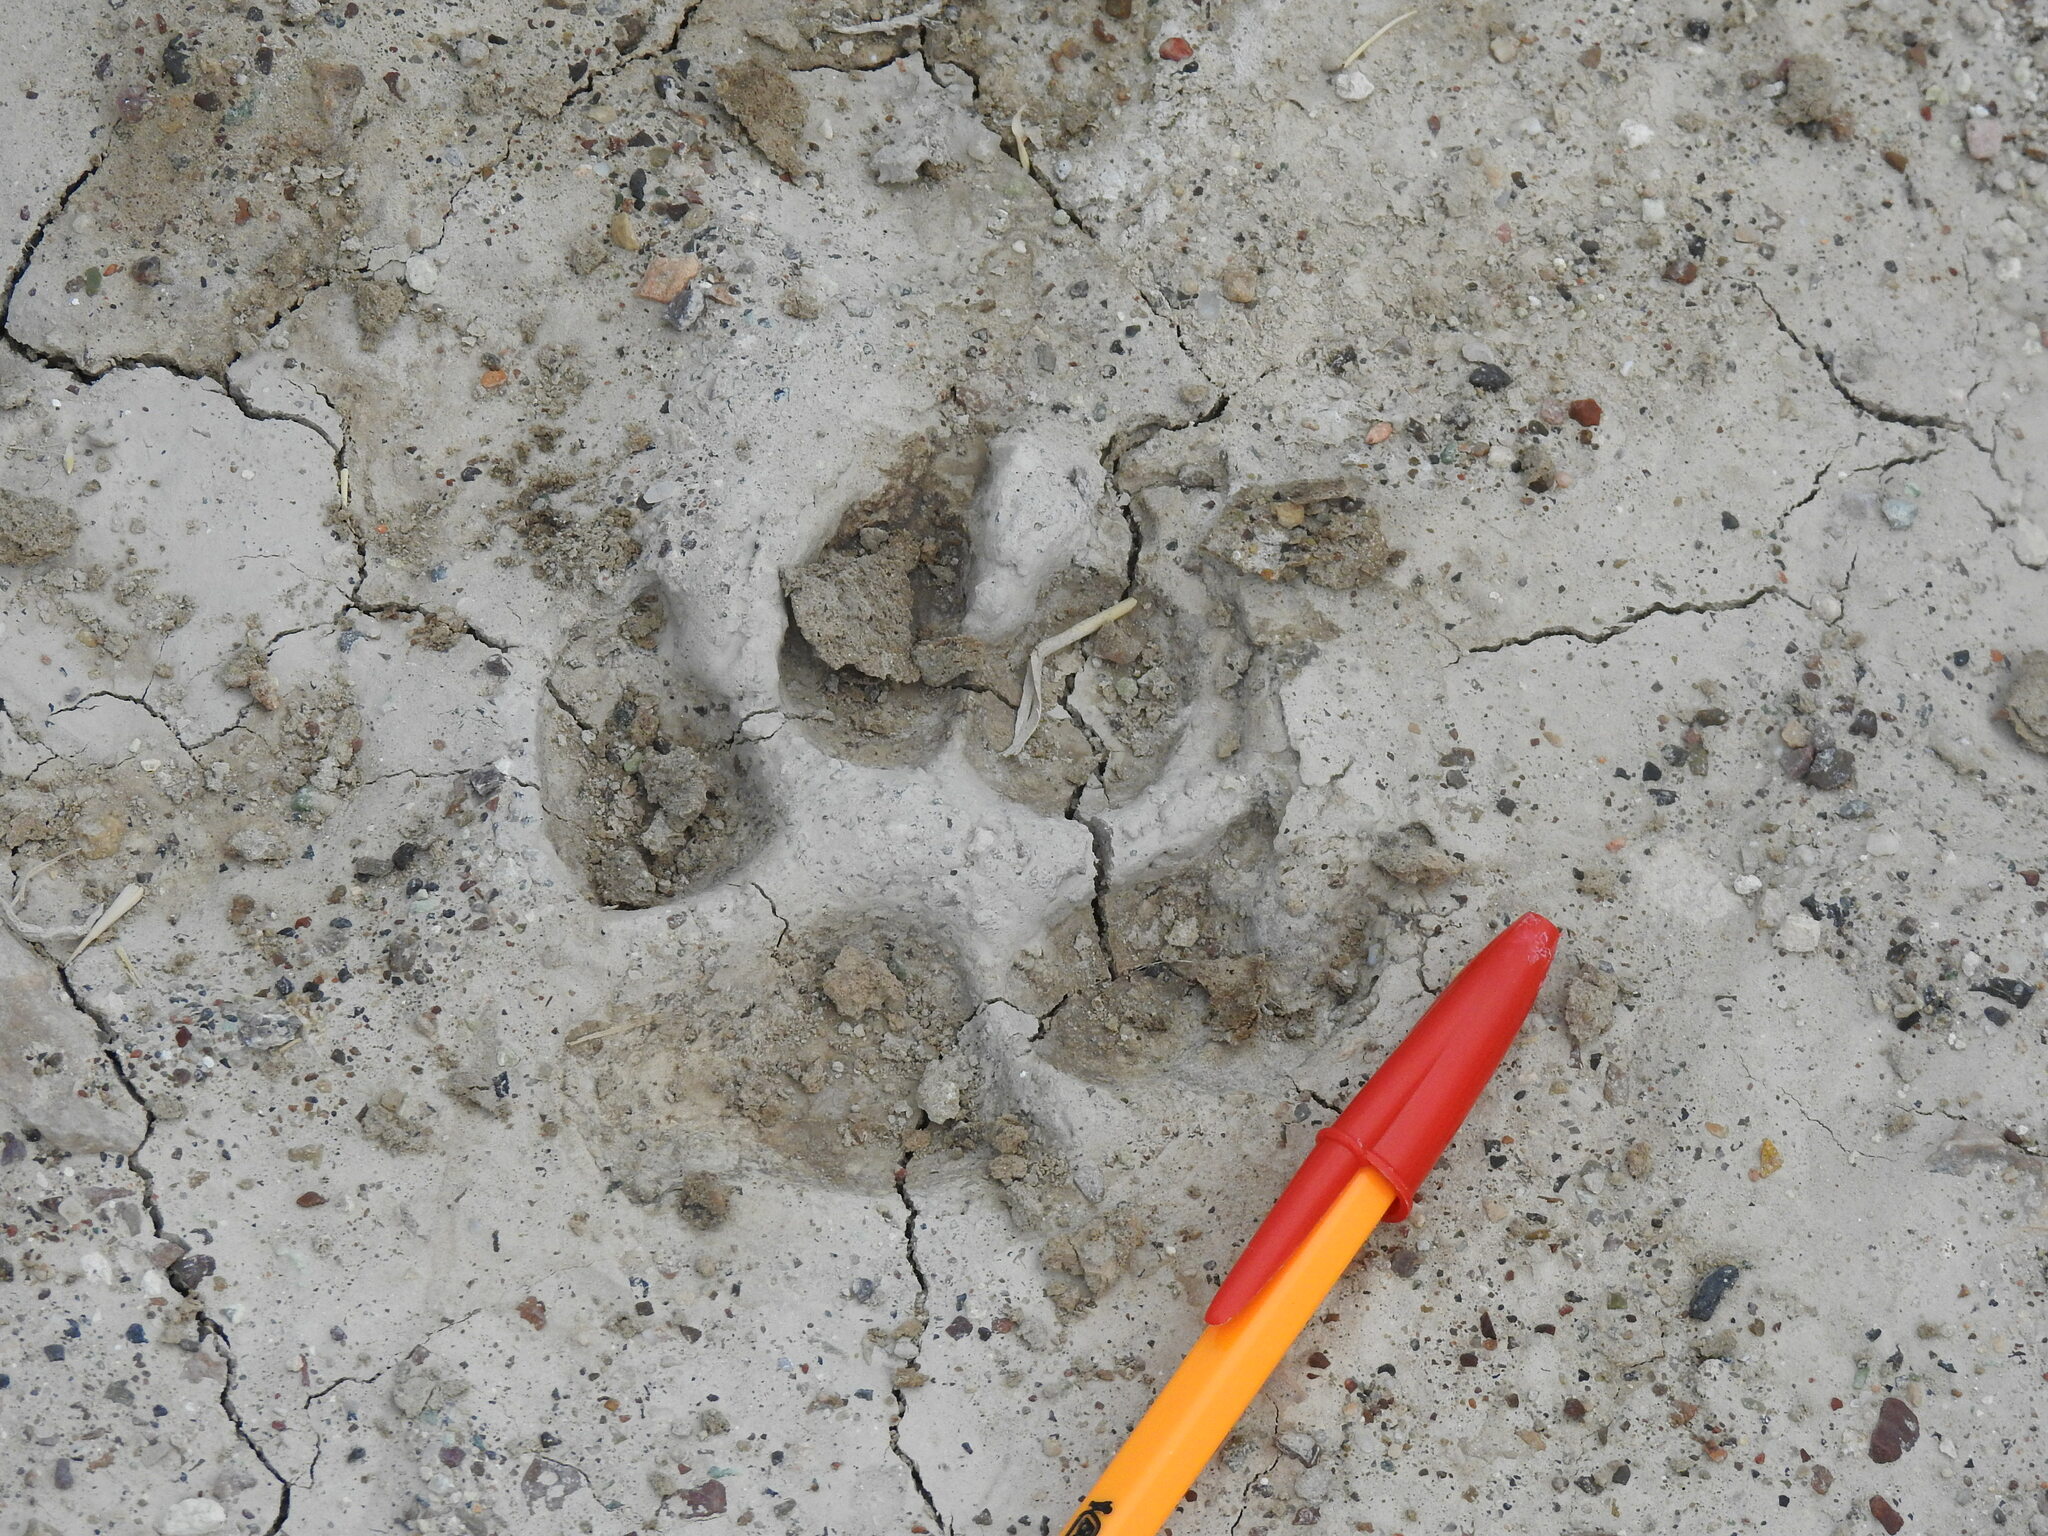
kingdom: Animalia
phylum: Chordata
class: Mammalia
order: Carnivora
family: Canidae
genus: Canis
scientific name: Canis lupus
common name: Gray wolf
